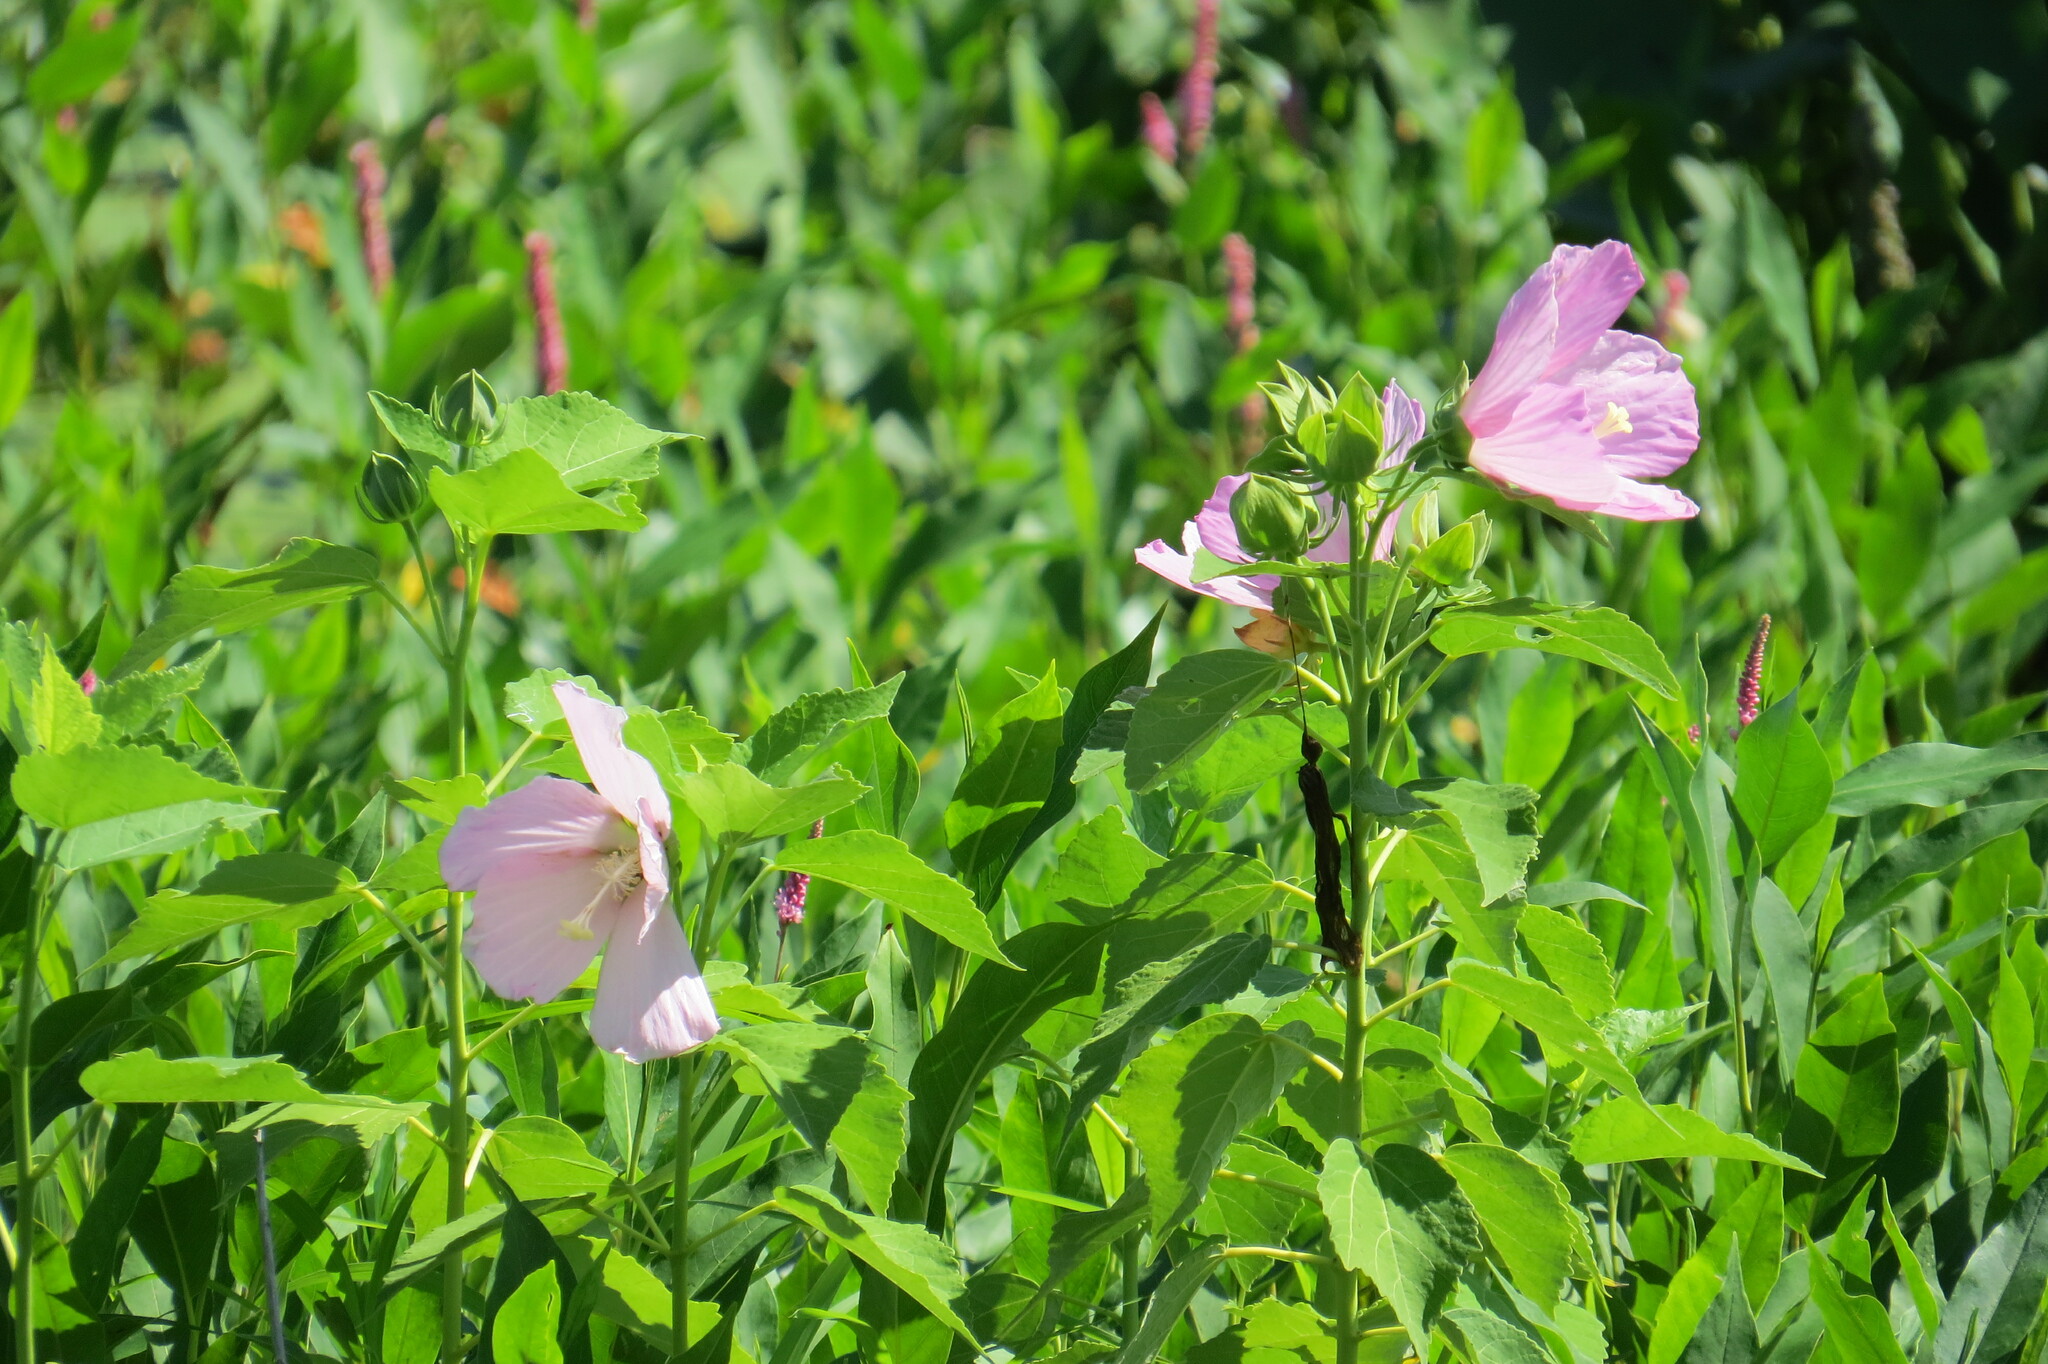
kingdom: Plantae
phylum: Tracheophyta
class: Magnoliopsida
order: Malvales
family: Malvaceae
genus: Hibiscus
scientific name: Hibiscus moscheutos
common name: Common rose-mallow
